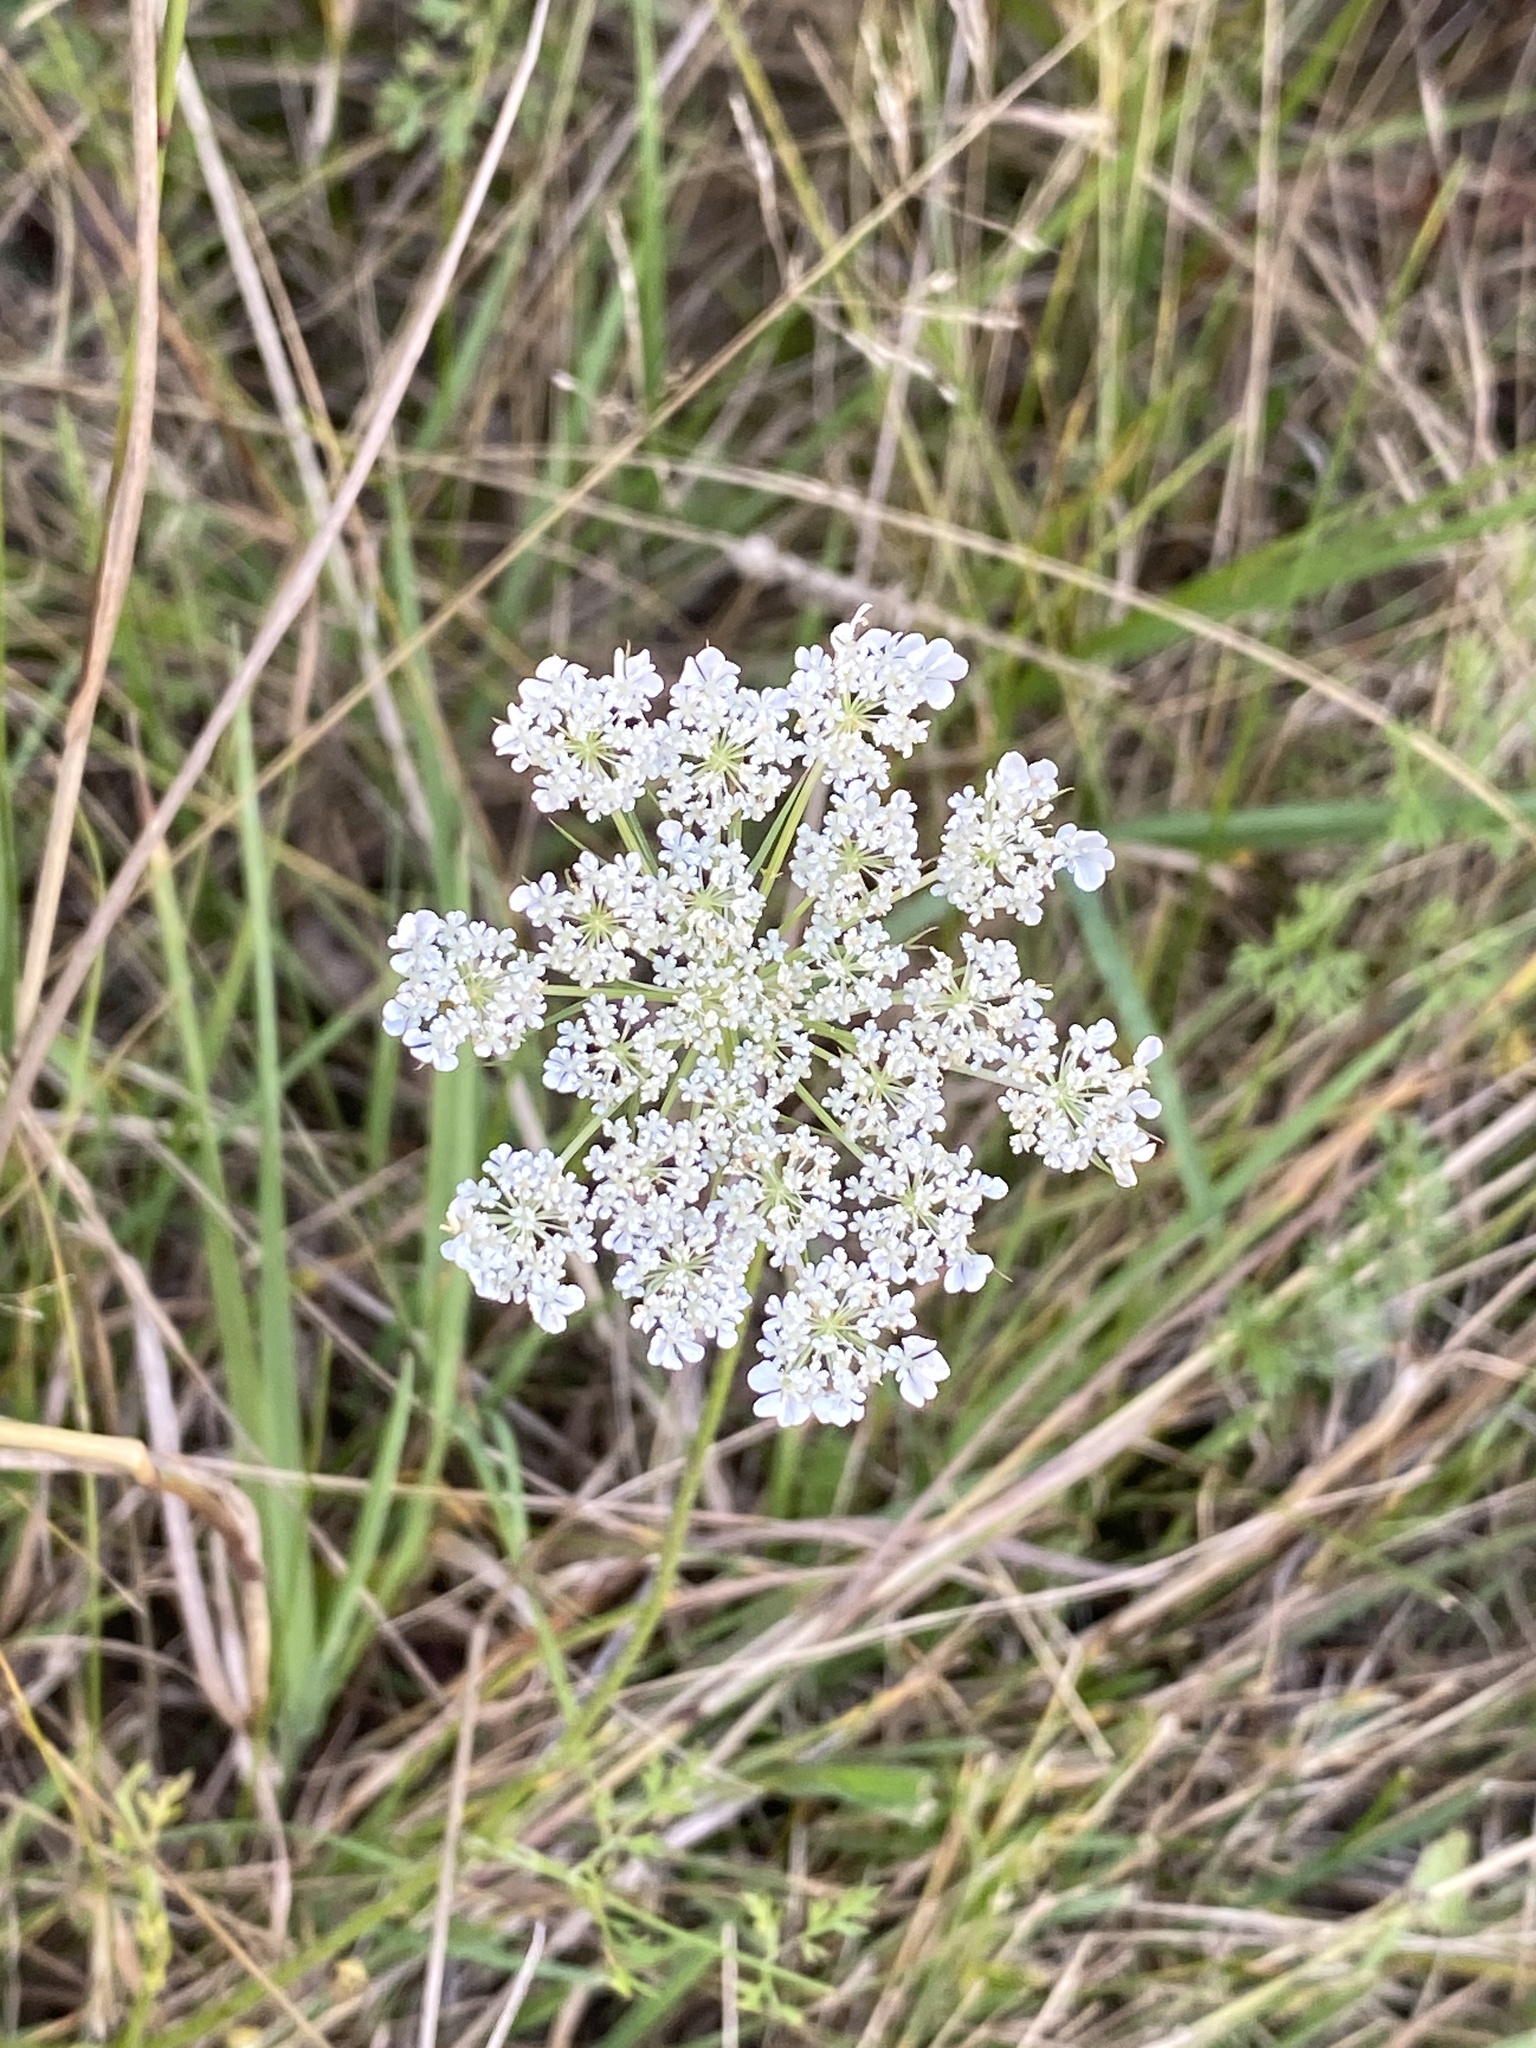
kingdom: Plantae
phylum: Tracheophyta
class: Magnoliopsida
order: Apiales
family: Apiaceae
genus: Daucus
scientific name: Daucus carota
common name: Wild carrot
